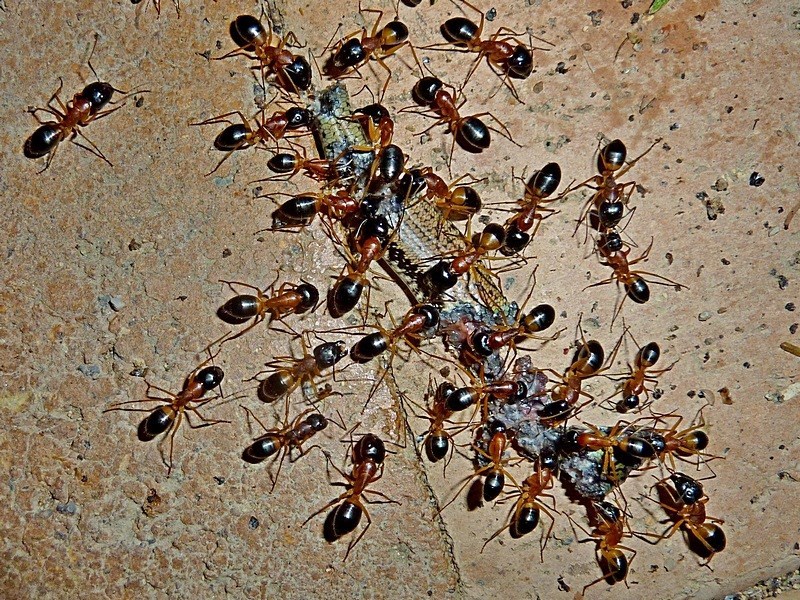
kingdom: Animalia
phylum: Arthropoda
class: Insecta
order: Hymenoptera
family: Formicidae
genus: Camponotus
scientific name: Camponotus consobrinus
